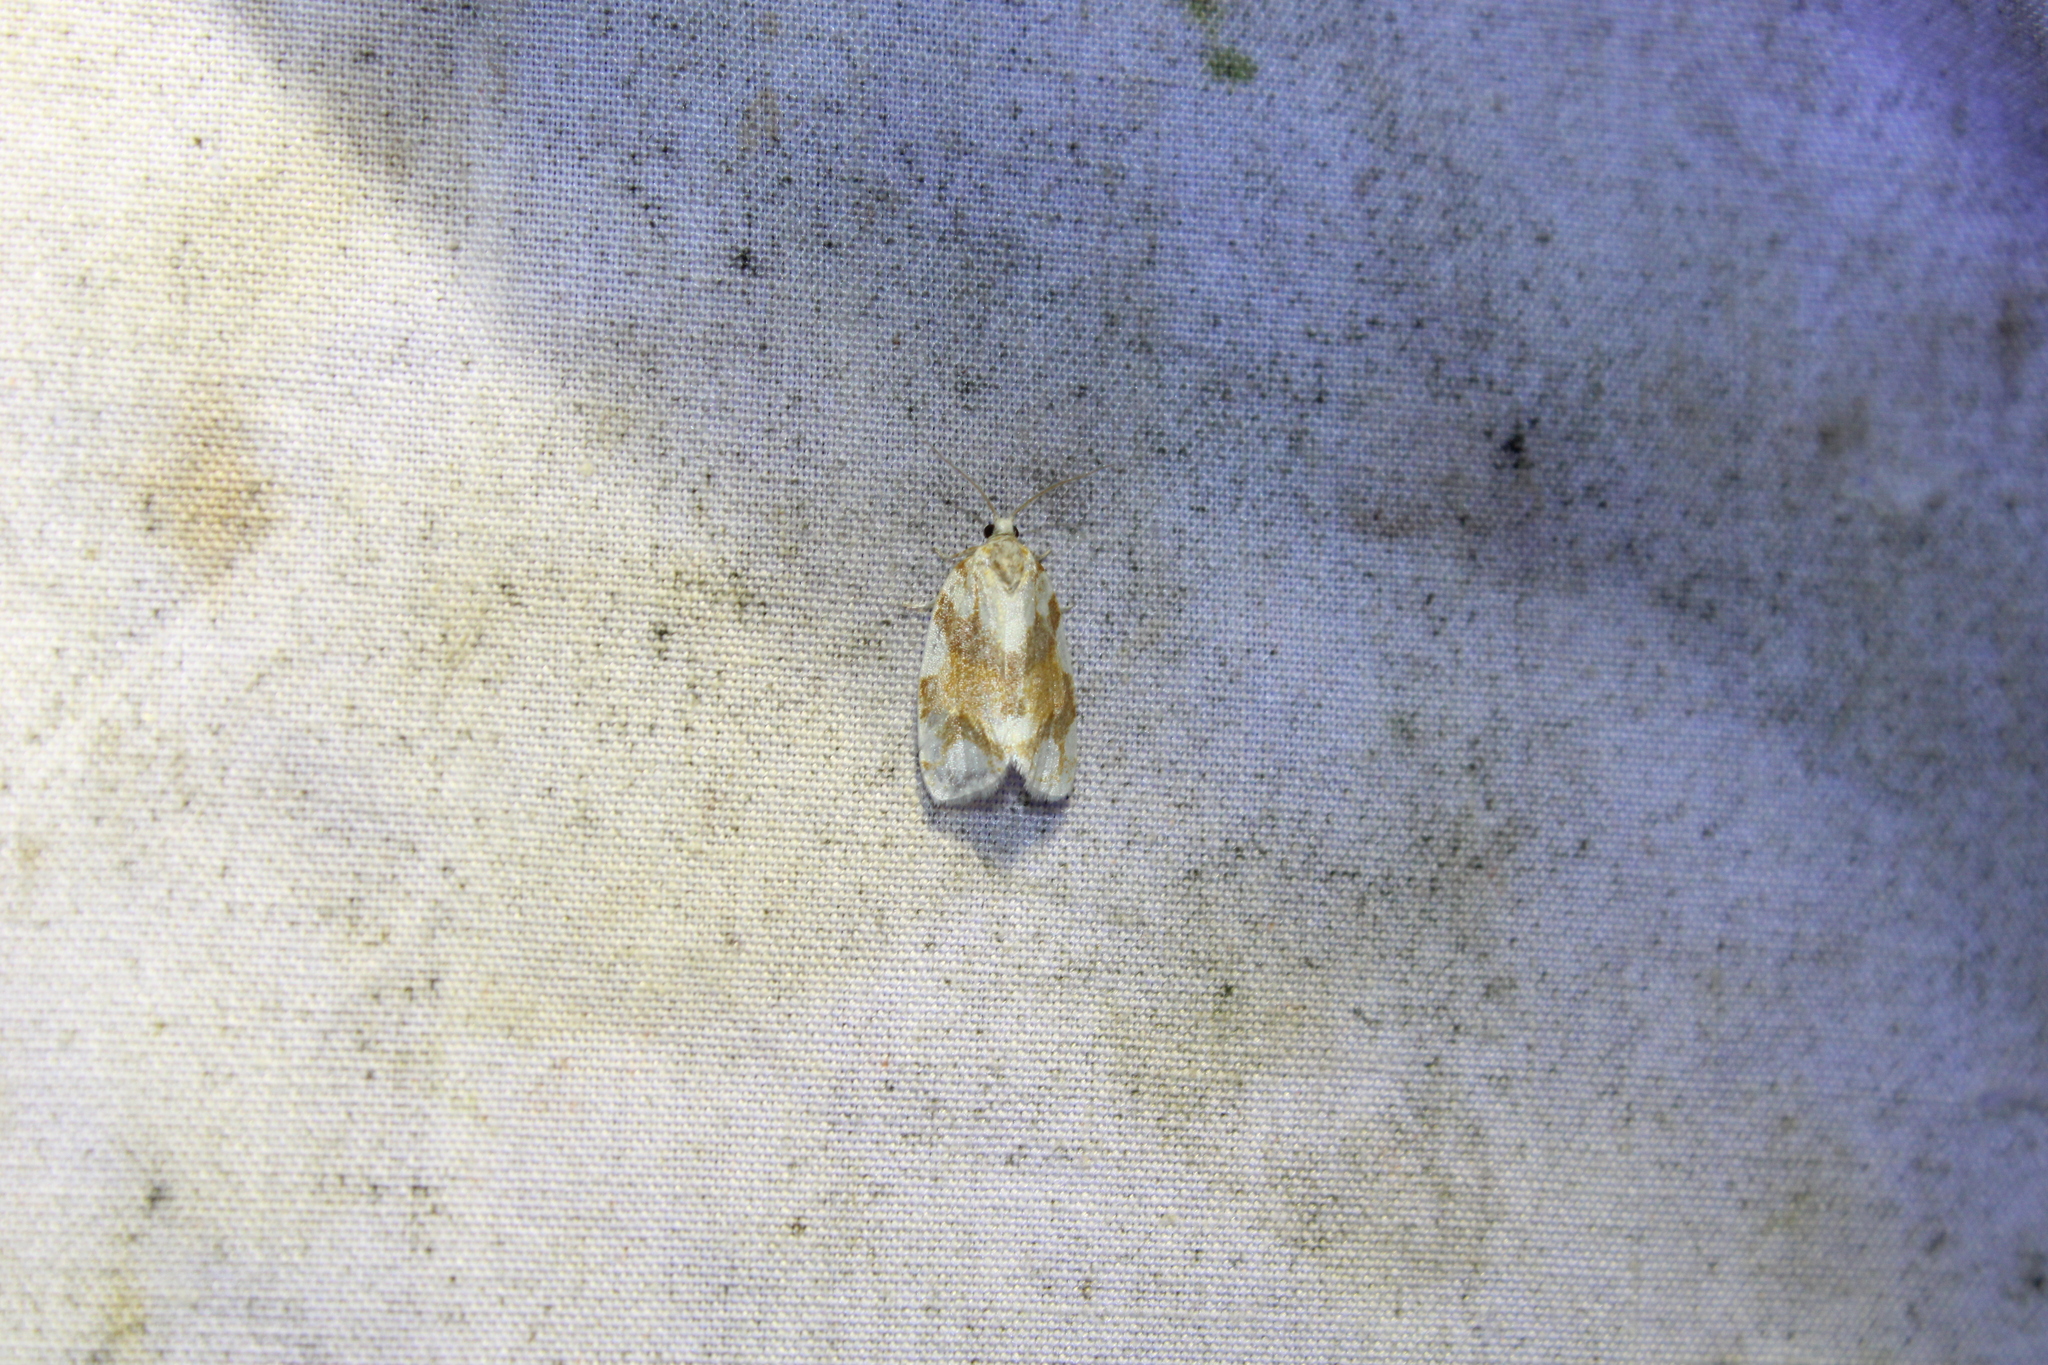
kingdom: Animalia
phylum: Arthropoda
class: Insecta
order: Lepidoptera
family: Tortricidae
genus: Argyrotaenia
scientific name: Argyrotaenia alisellana
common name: White-spotted leafroller moth
